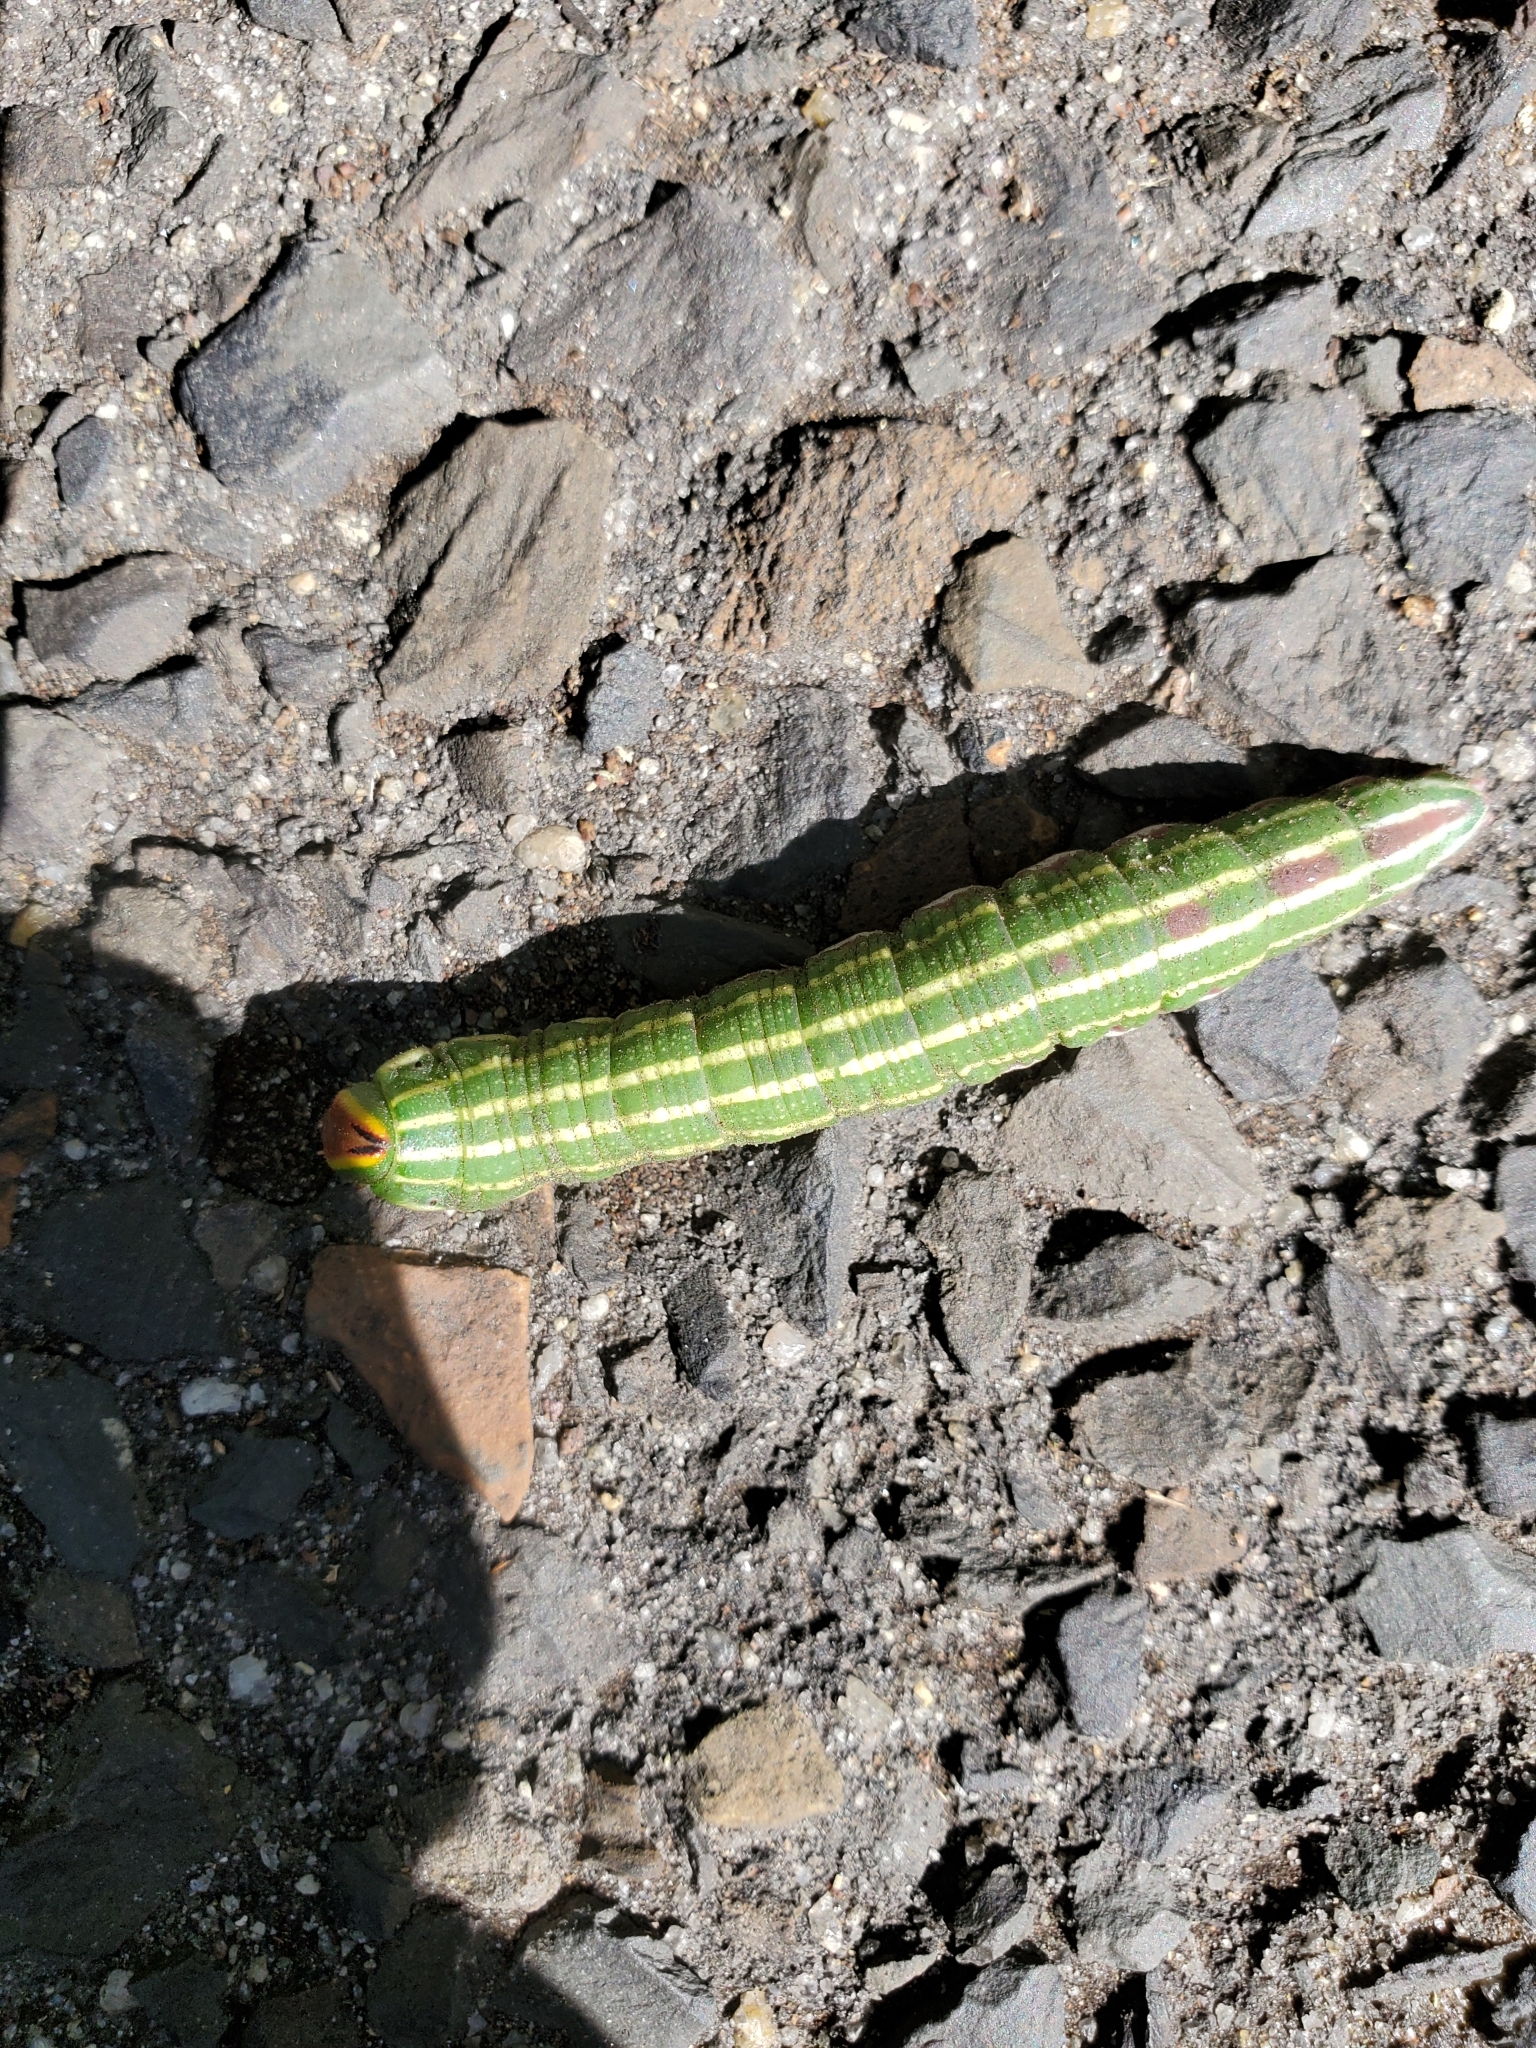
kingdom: Animalia
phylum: Arthropoda
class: Insecta
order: Lepidoptera
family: Sphingidae
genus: Lapara
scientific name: Lapara bombycoides
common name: Northern pine sphinx
